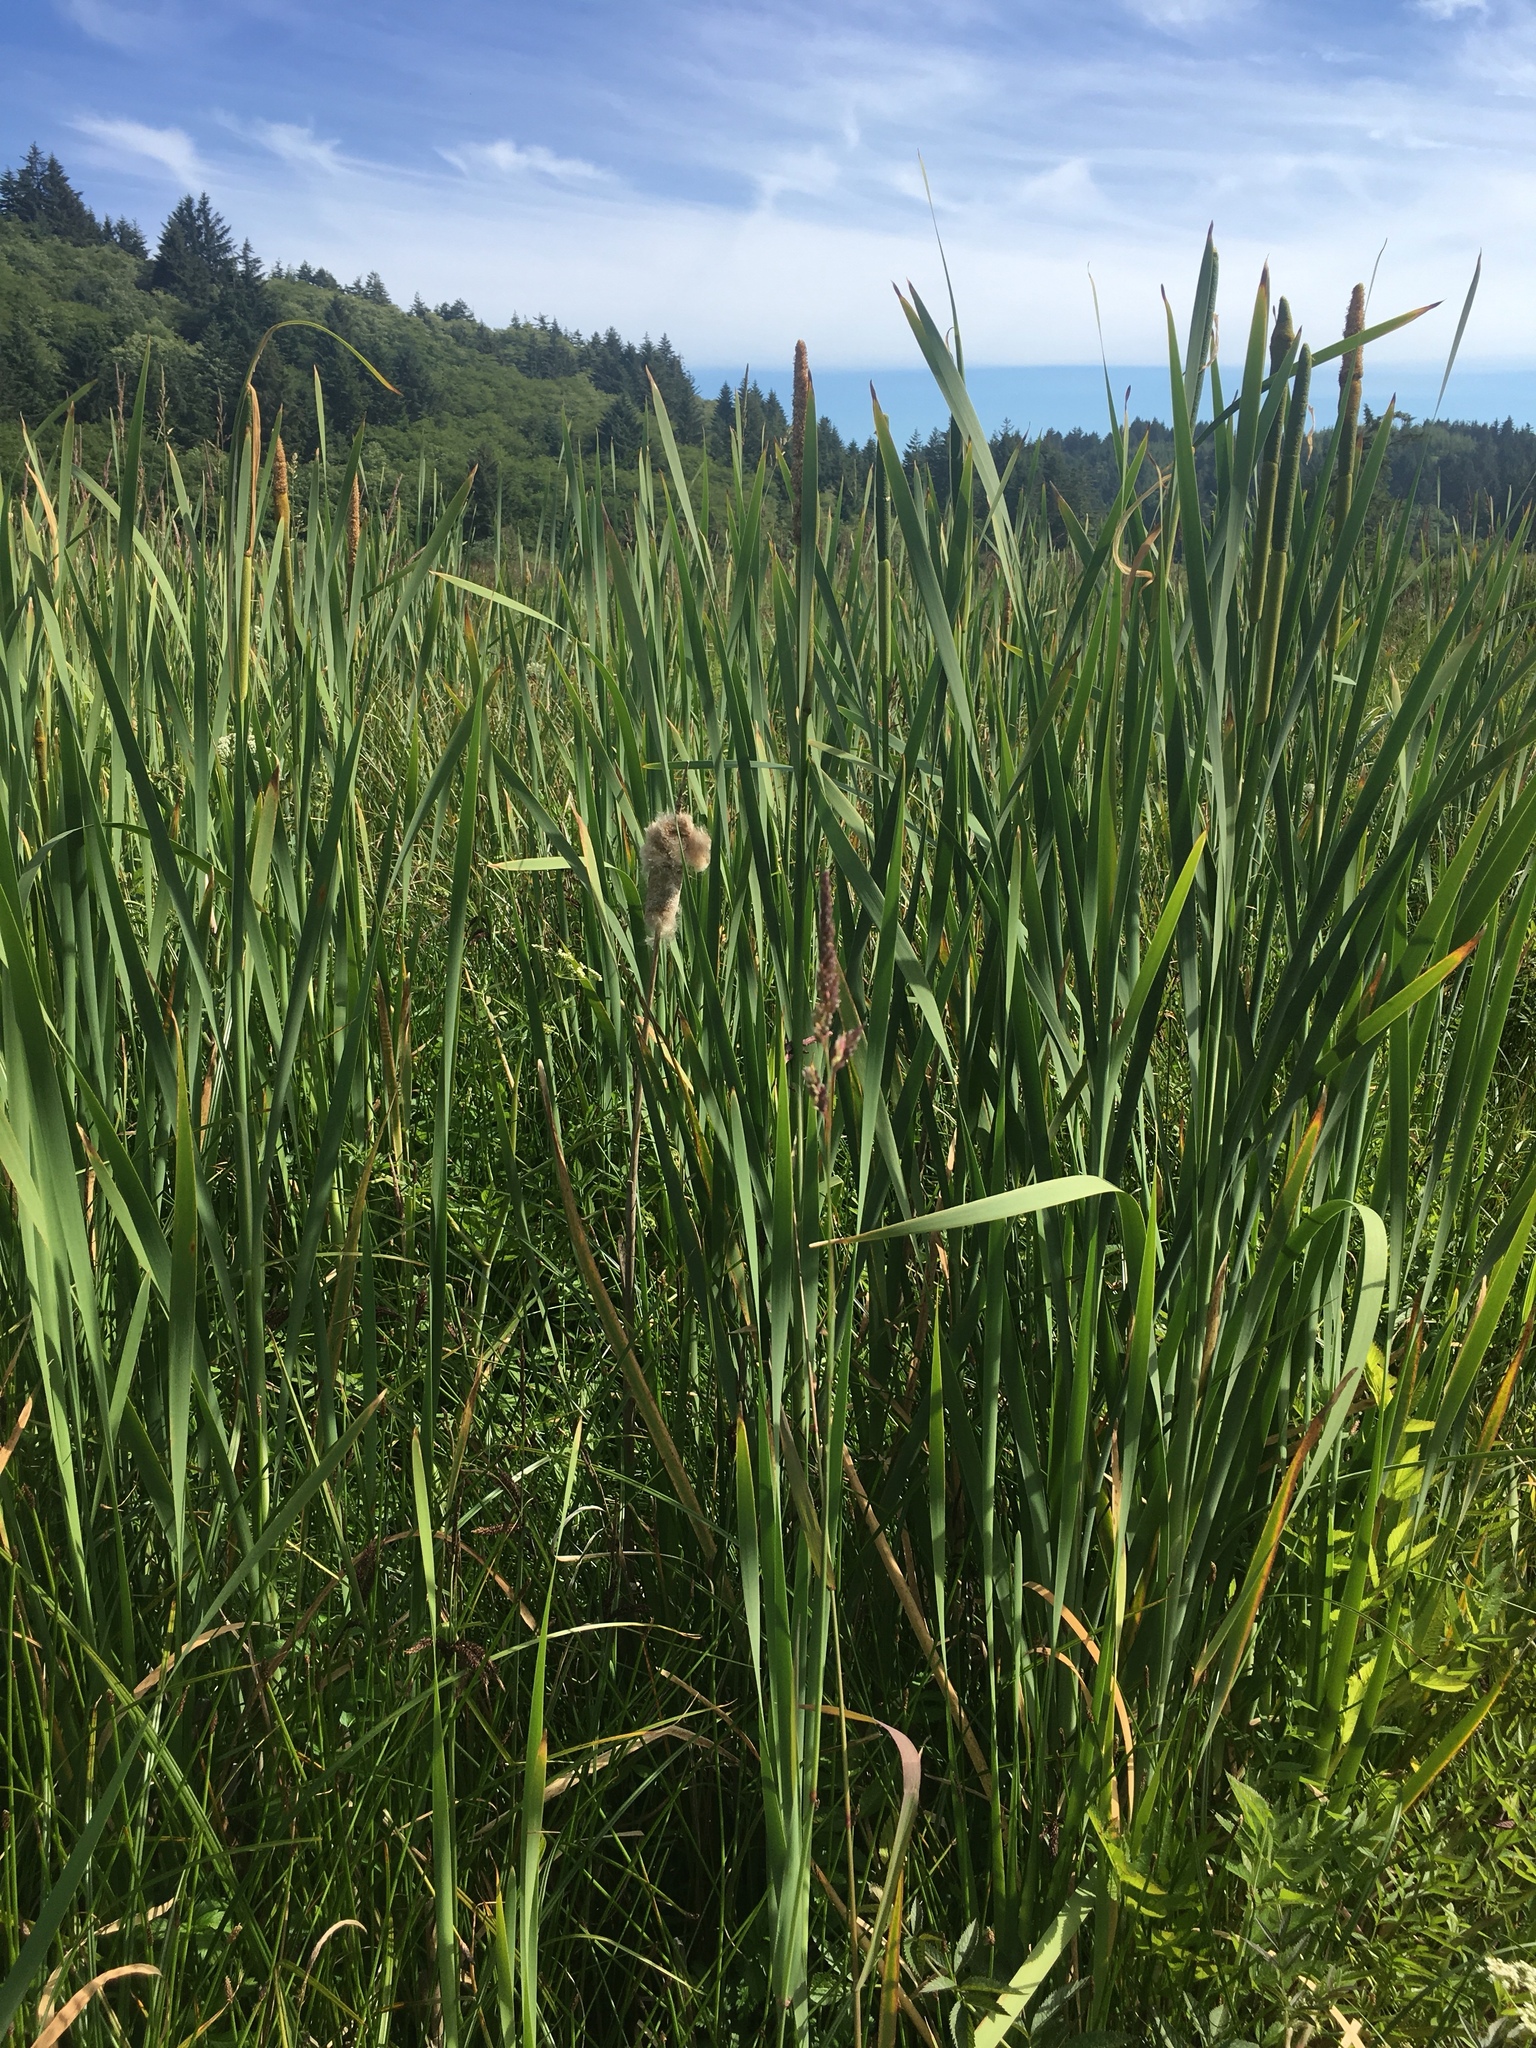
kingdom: Plantae
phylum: Tracheophyta
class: Liliopsida
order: Poales
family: Typhaceae
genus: Typha
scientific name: Typha latifolia
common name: Broadleaf cattail
